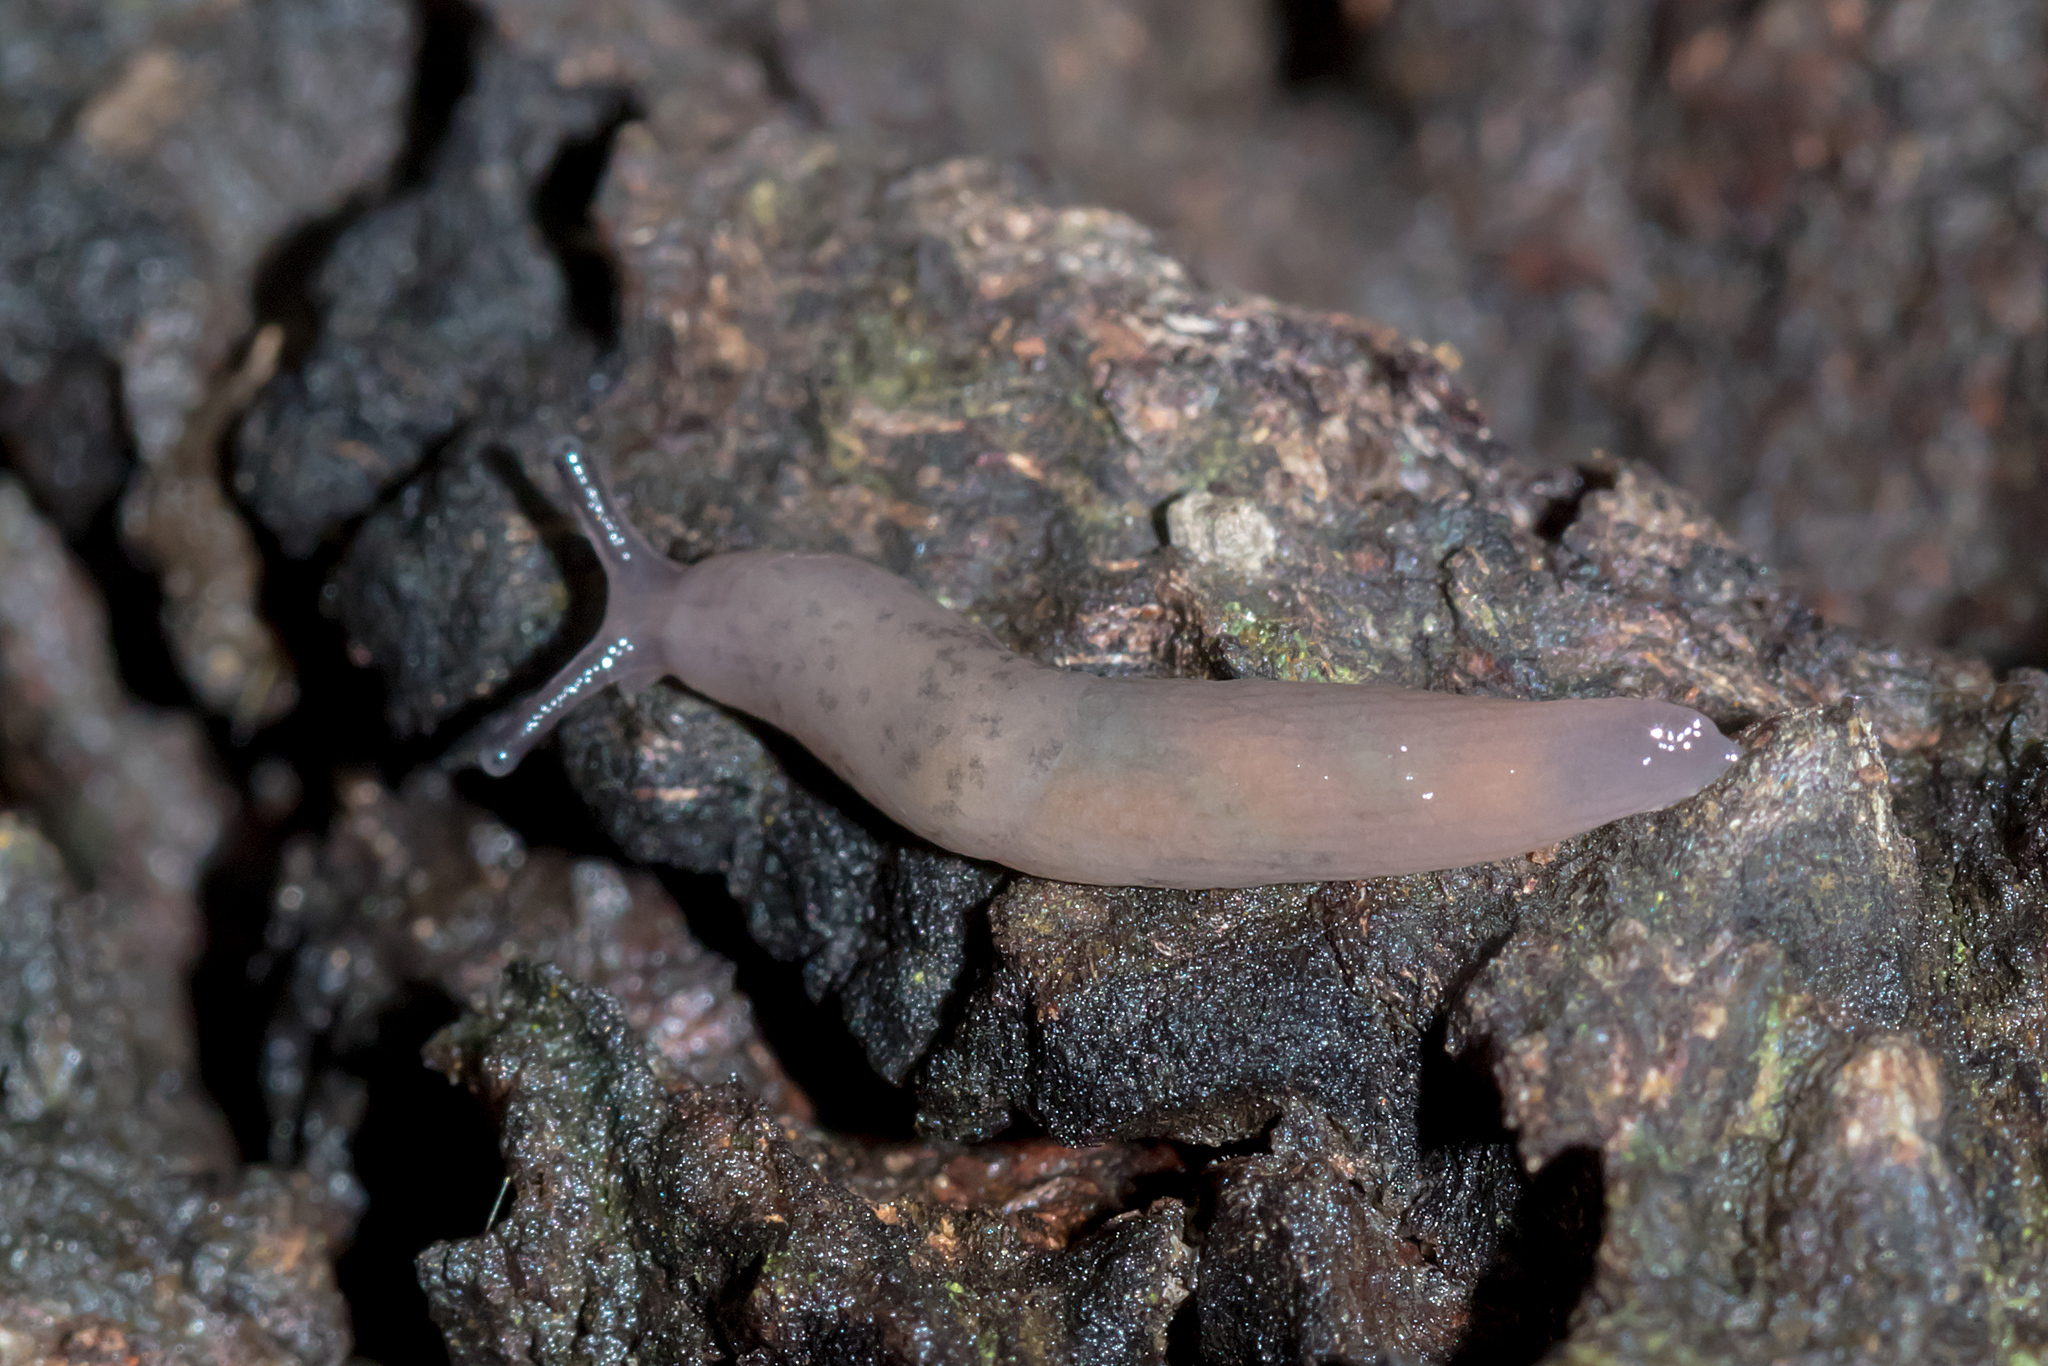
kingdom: Animalia
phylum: Mollusca
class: Gastropoda
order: Stylommatophora
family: Agriolimacidae
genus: Deroceras
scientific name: Deroceras invadens
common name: Caruana's slug
